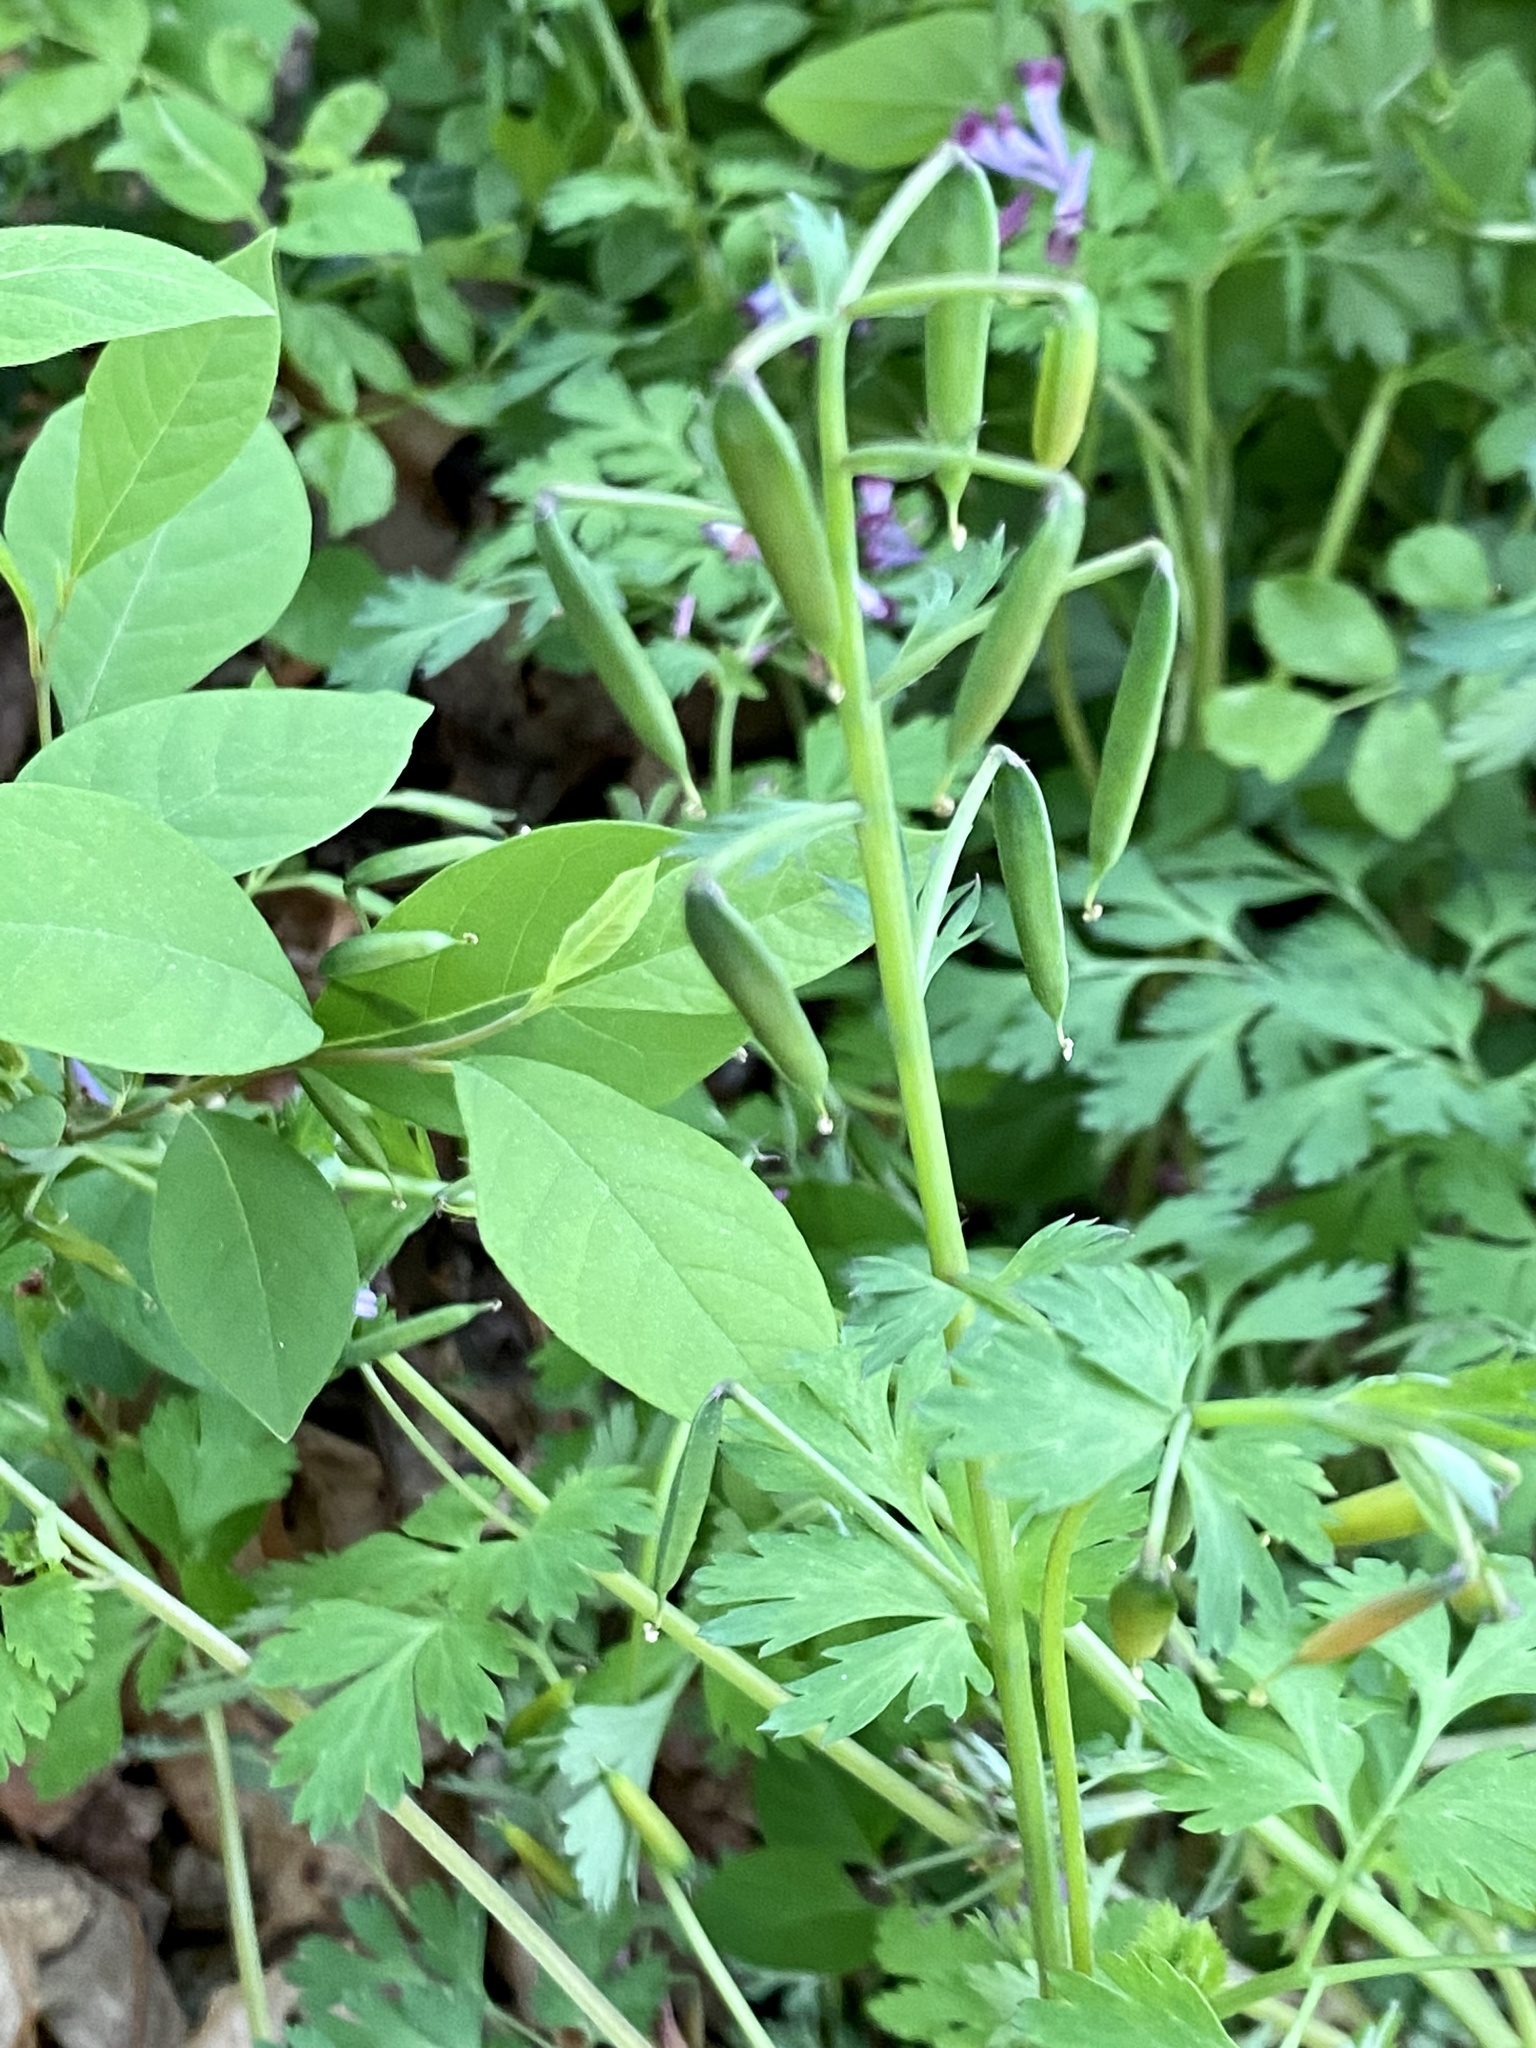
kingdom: Plantae
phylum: Tracheophyta
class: Magnoliopsida
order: Ranunculales
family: Papaveraceae
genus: Corydalis
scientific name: Corydalis incisa
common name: Incised fumewort
